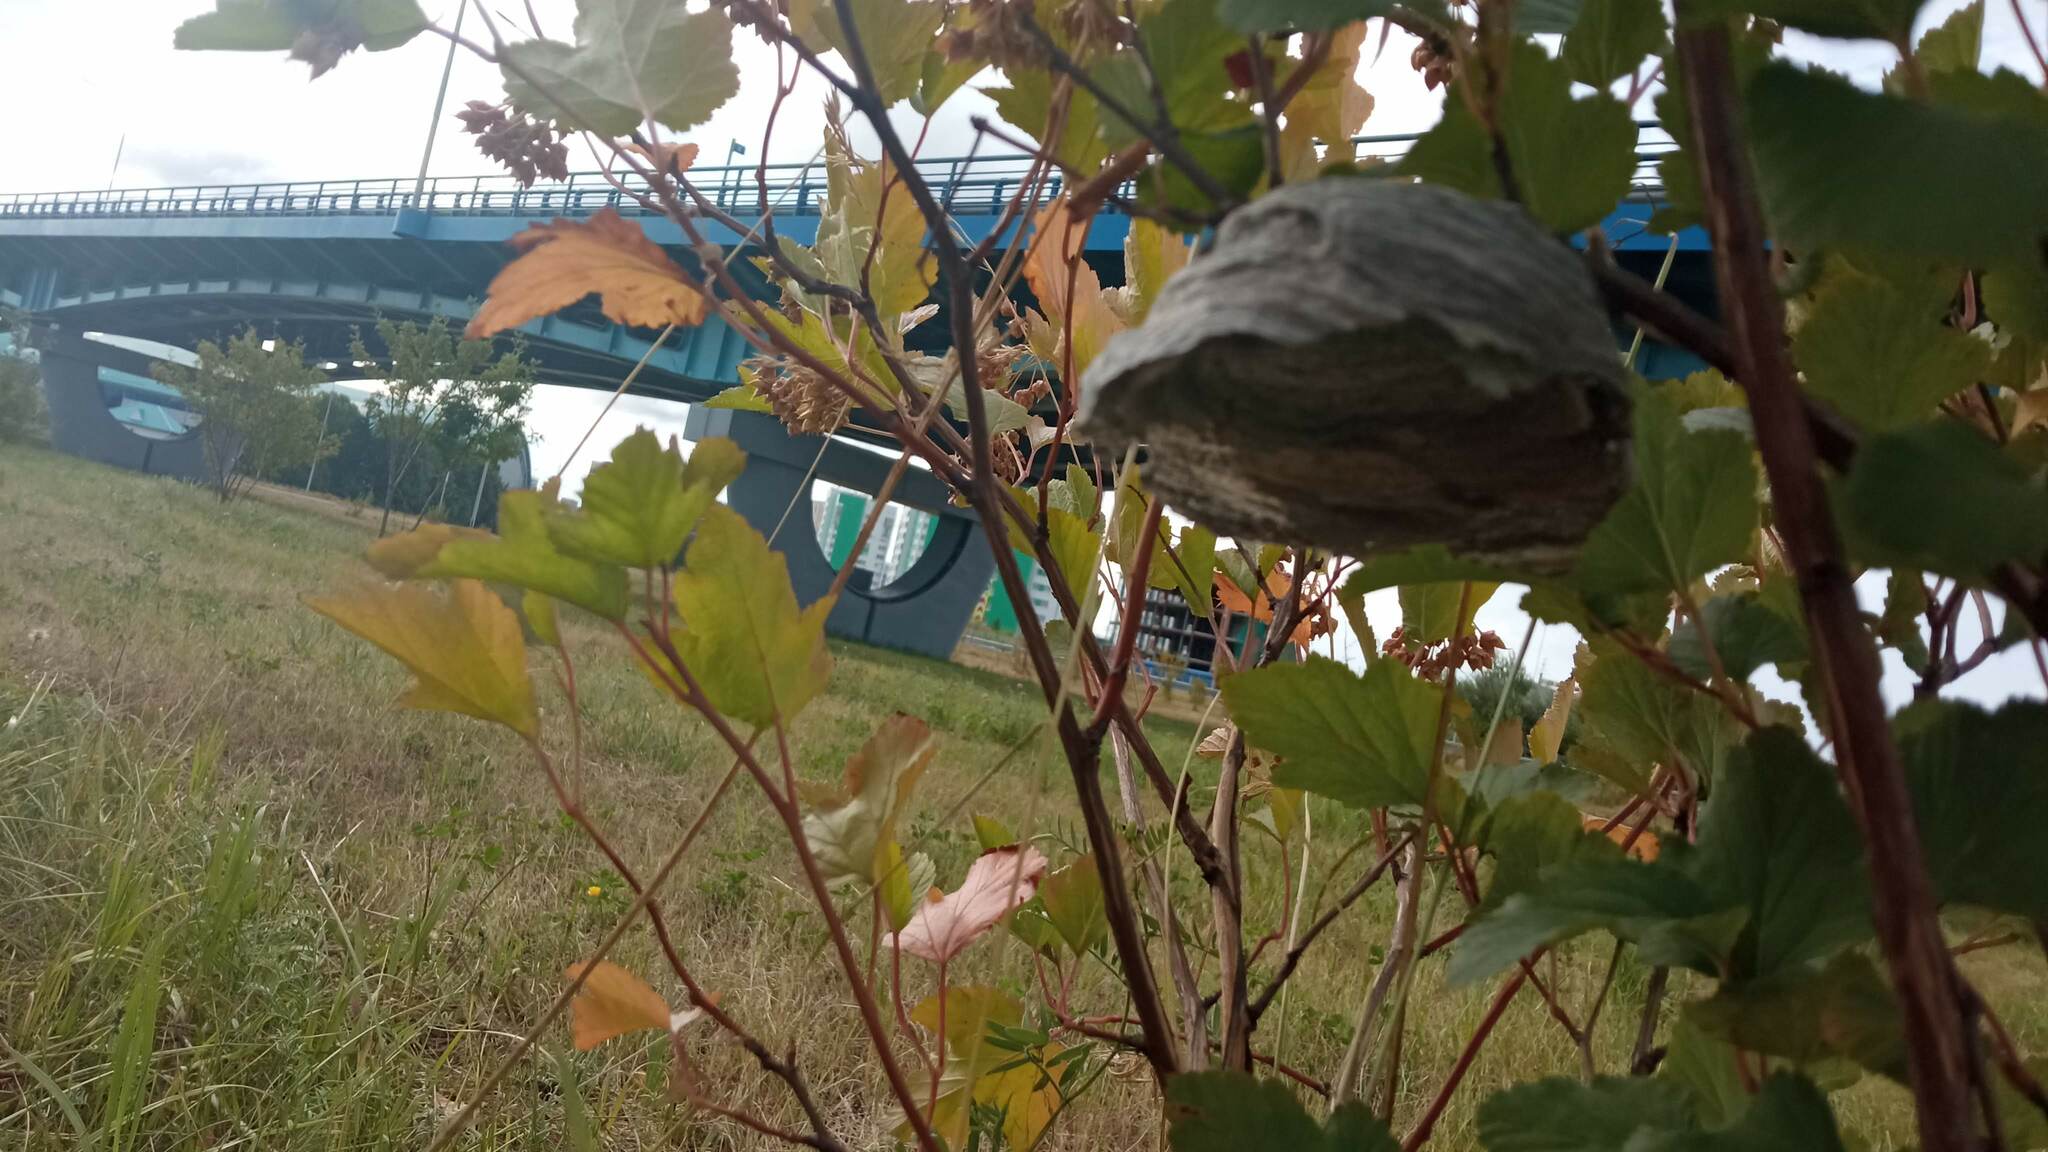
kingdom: Animalia
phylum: Arthropoda
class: Insecta
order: Hymenoptera
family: Vespidae
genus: Dolichovespula
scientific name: Dolichovespula media
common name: Median wasp
